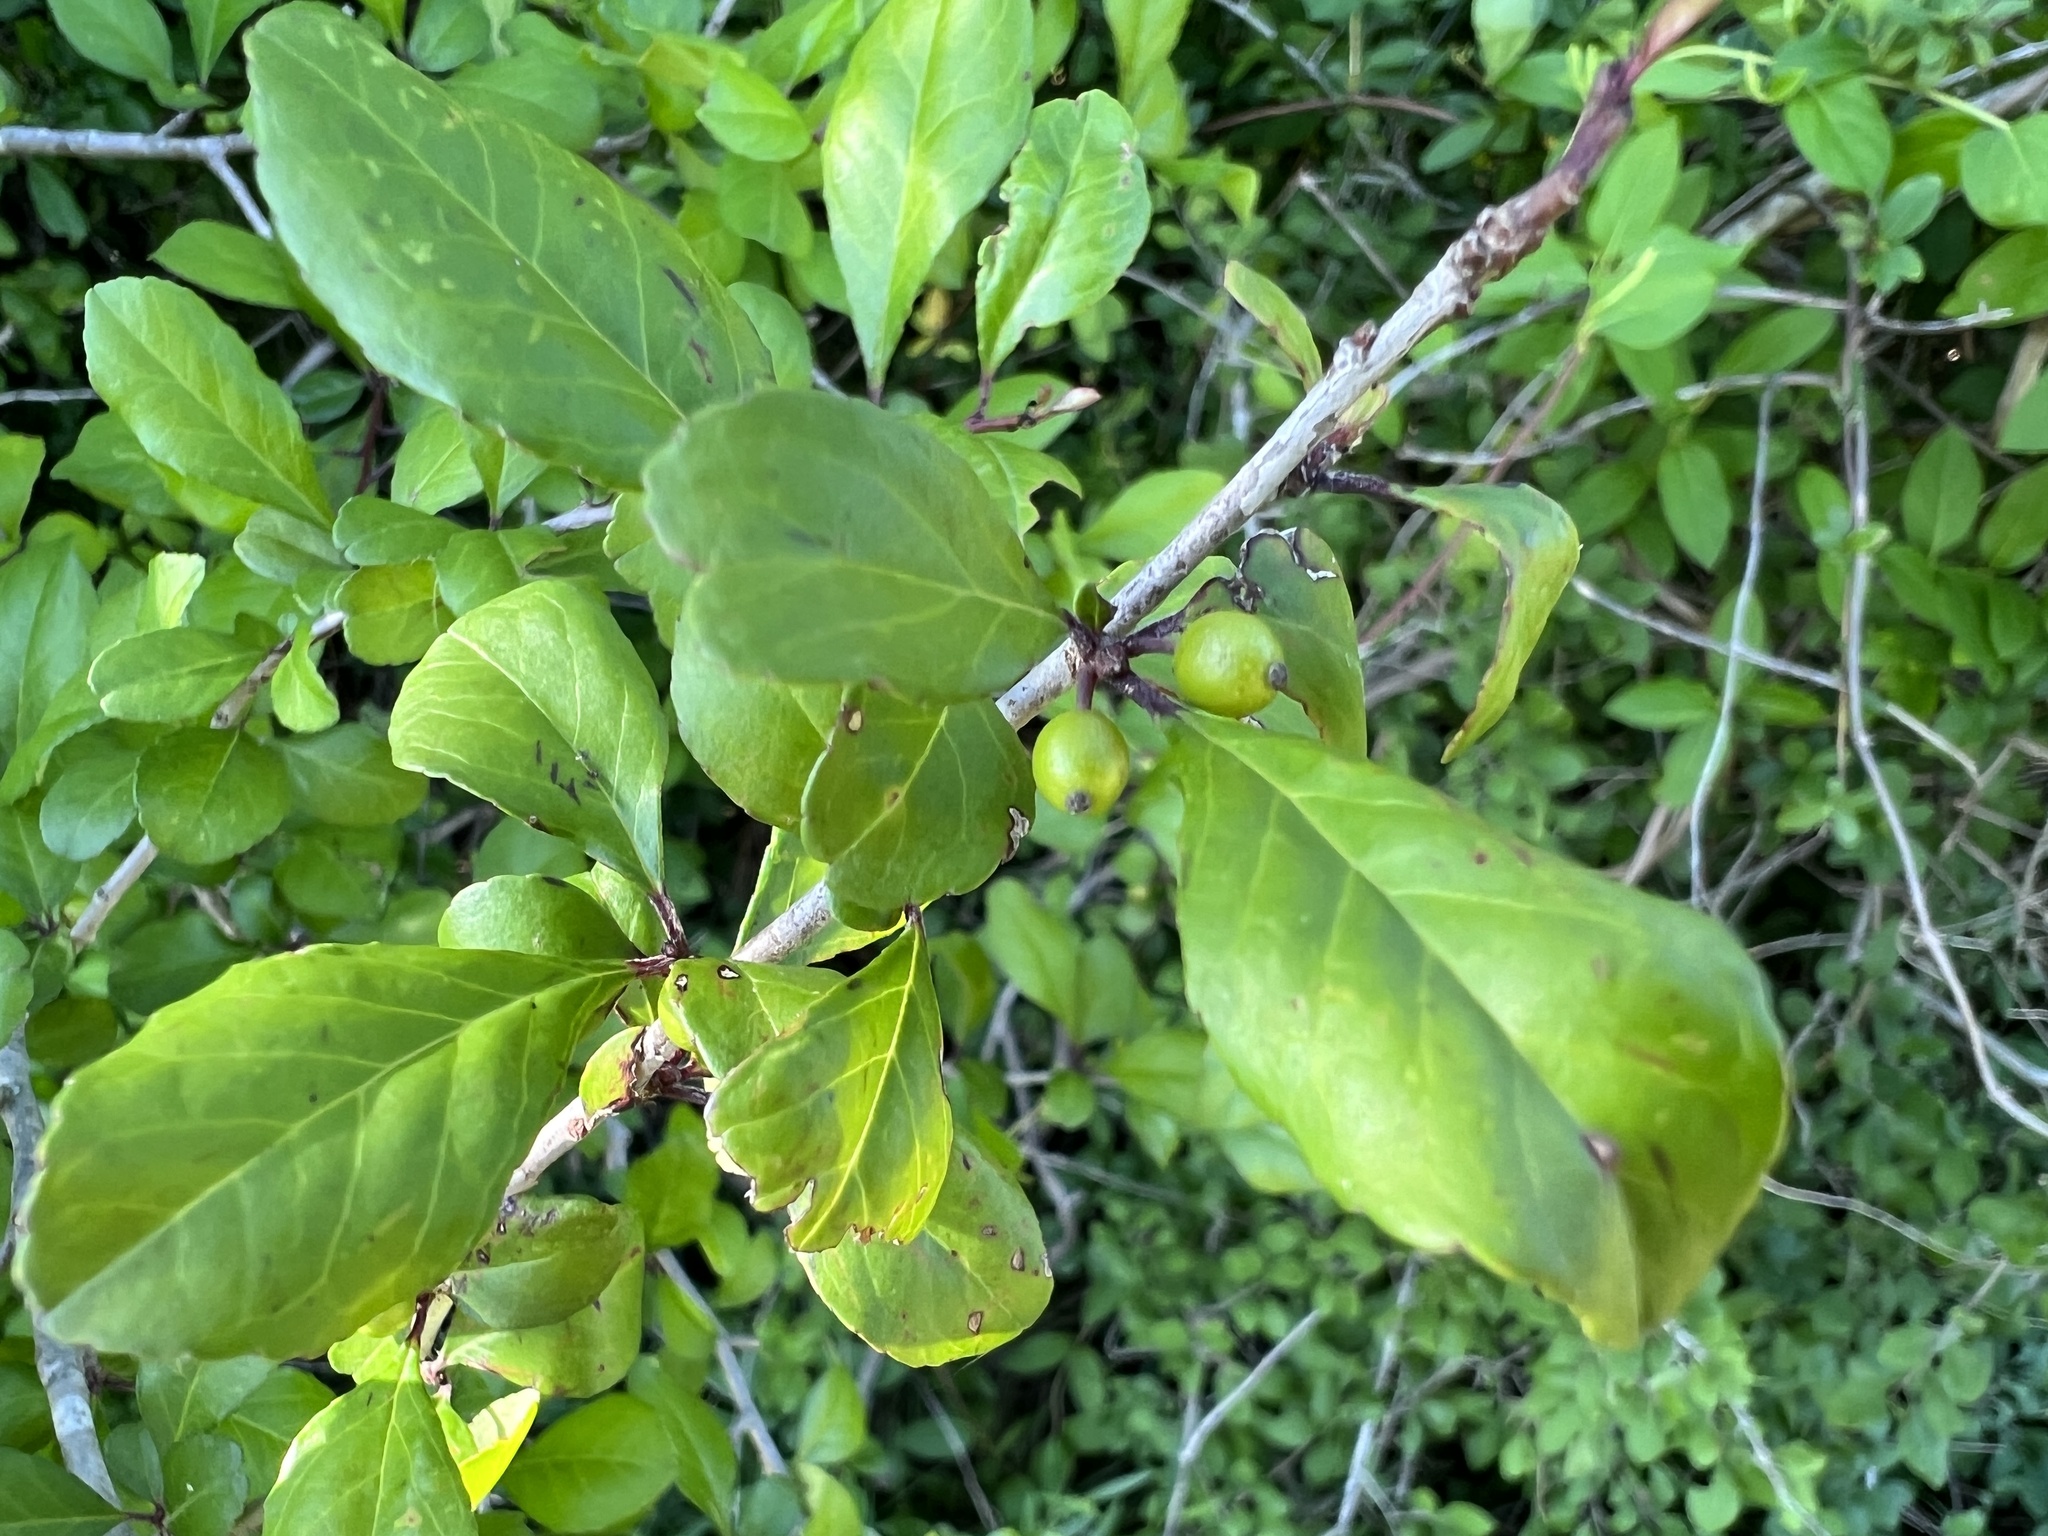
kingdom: Plantae
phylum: Tracheophyta
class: Magnoliopsida
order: Aquifoliales
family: Aquifoliaceae
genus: Ilex
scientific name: Ilex decidua
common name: Possum-haw
